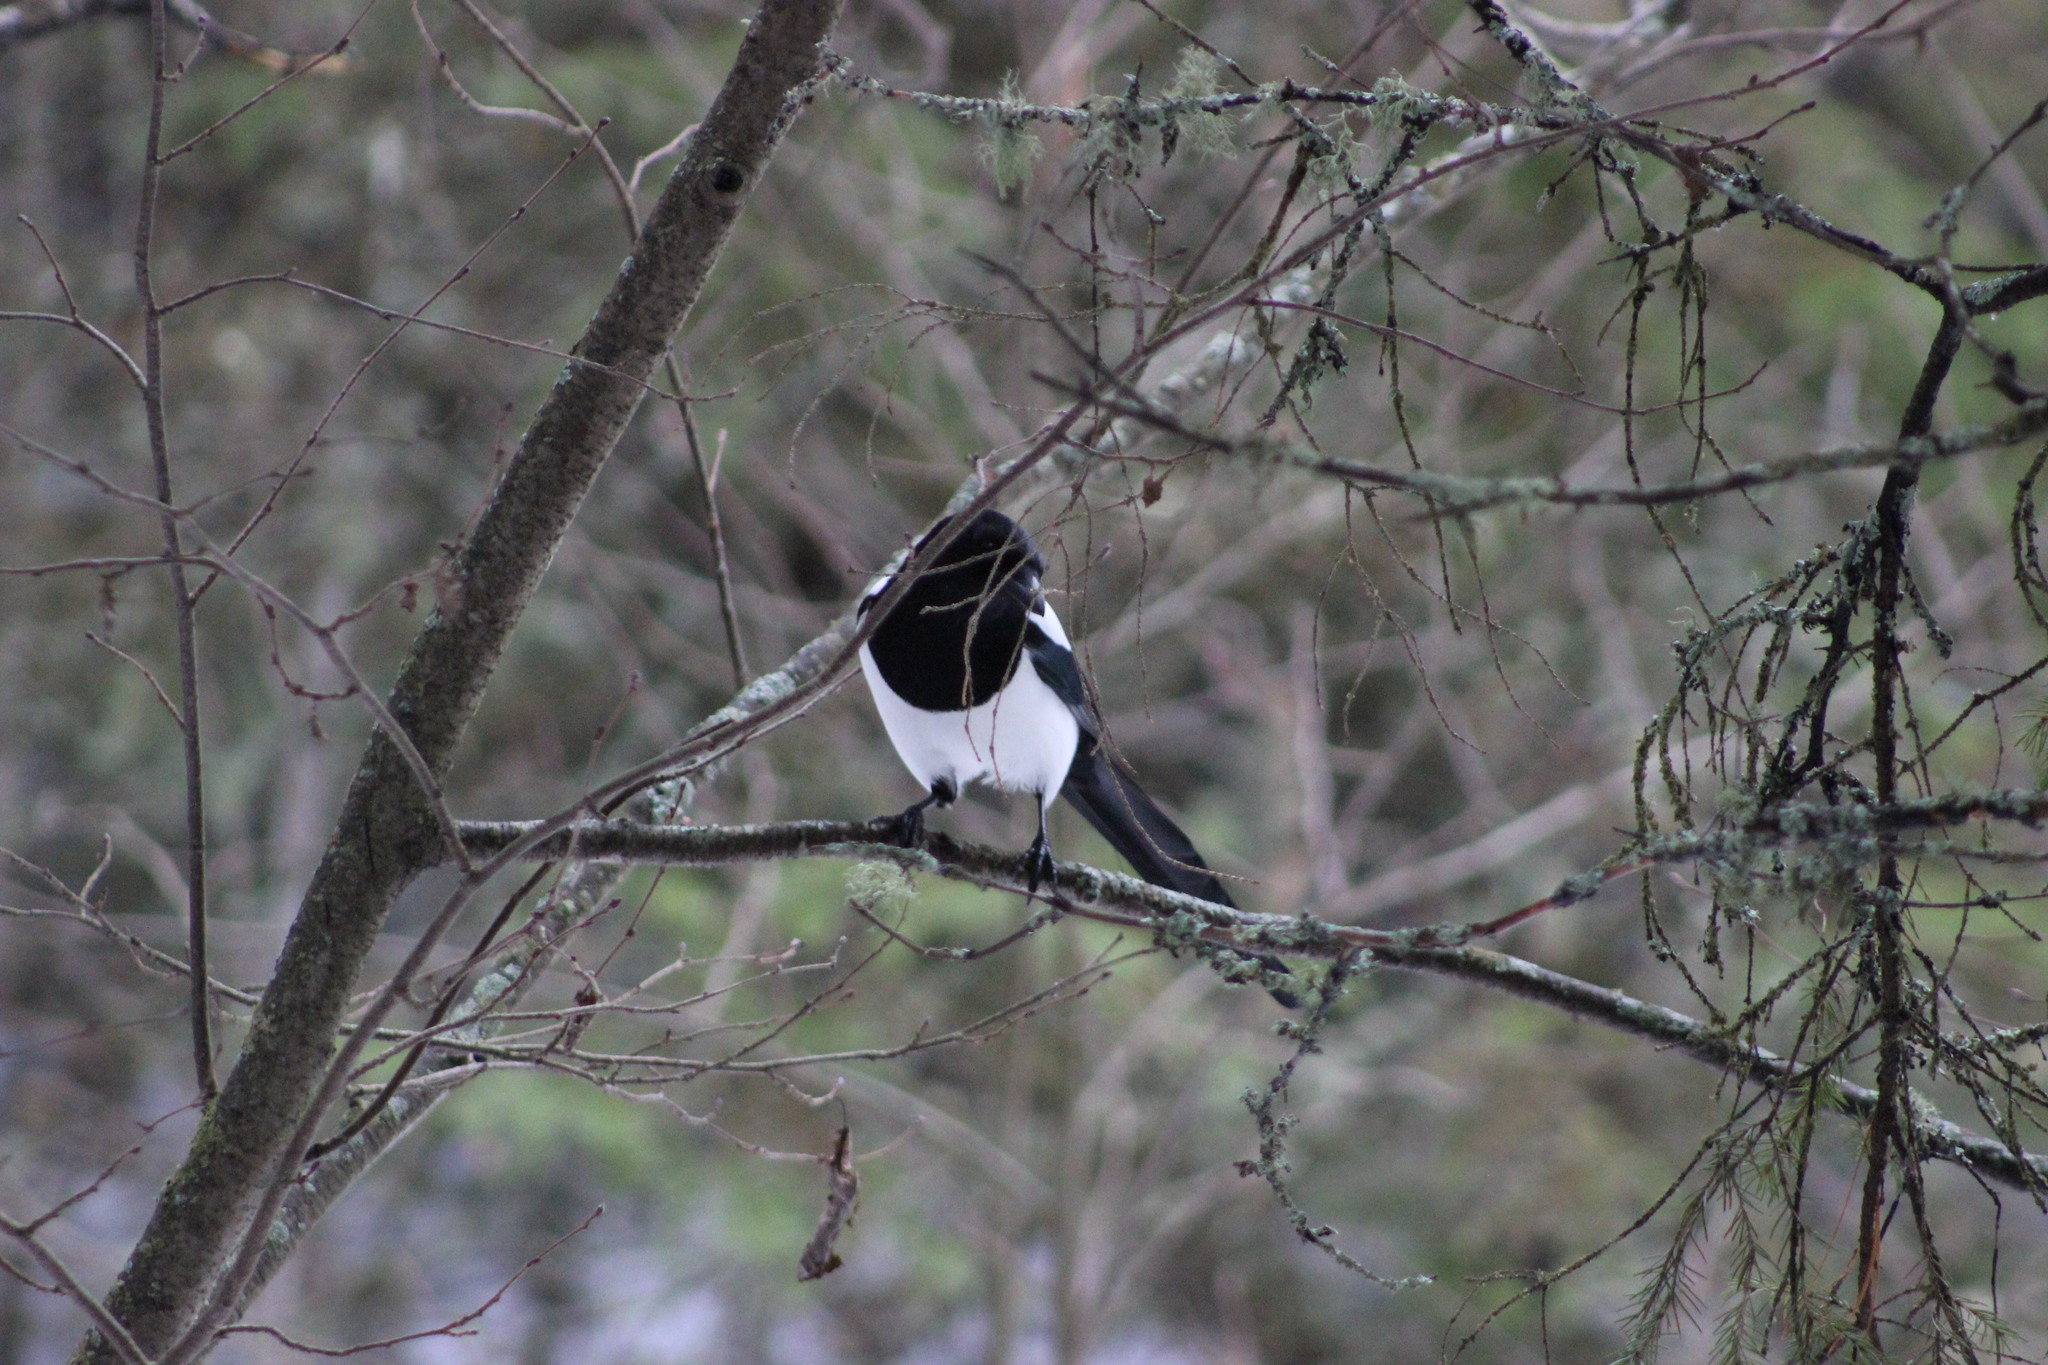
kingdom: Animalia
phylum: Chordata
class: Aves
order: Passeriformes
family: Corvidae
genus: Pica
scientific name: Pica pica
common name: Eurasian magpie
